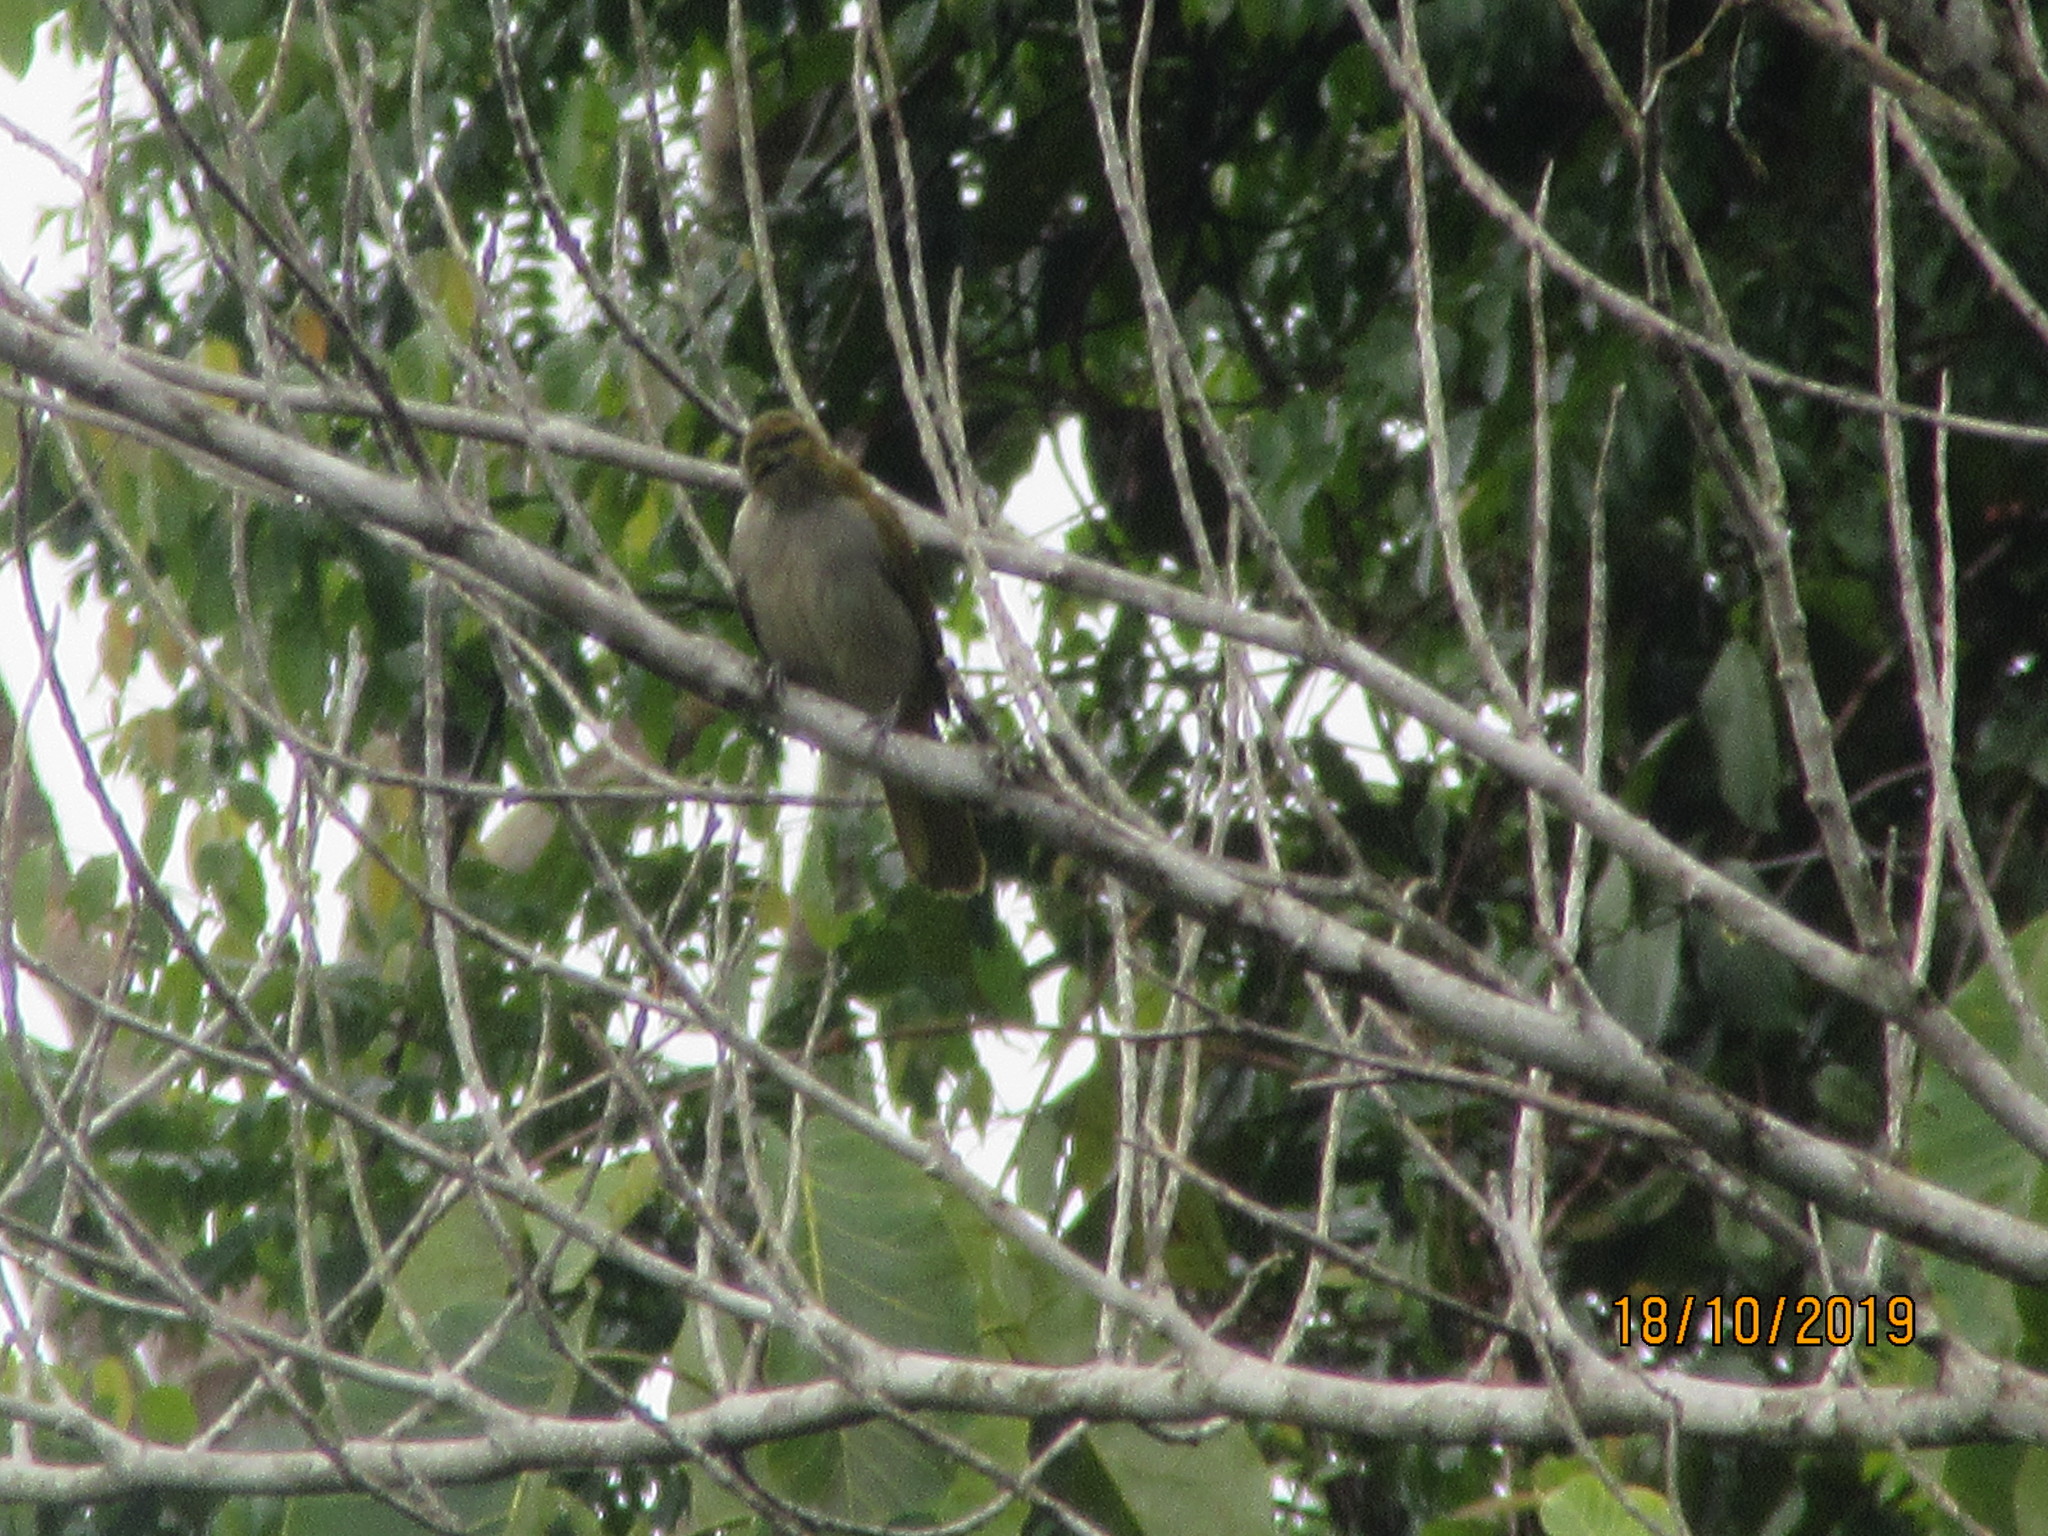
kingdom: Animalia
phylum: Chordata
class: Aves
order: Passeriformes
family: Thraupidae
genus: Saltator
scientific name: Saltator maximus
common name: Buff-throated saltator
